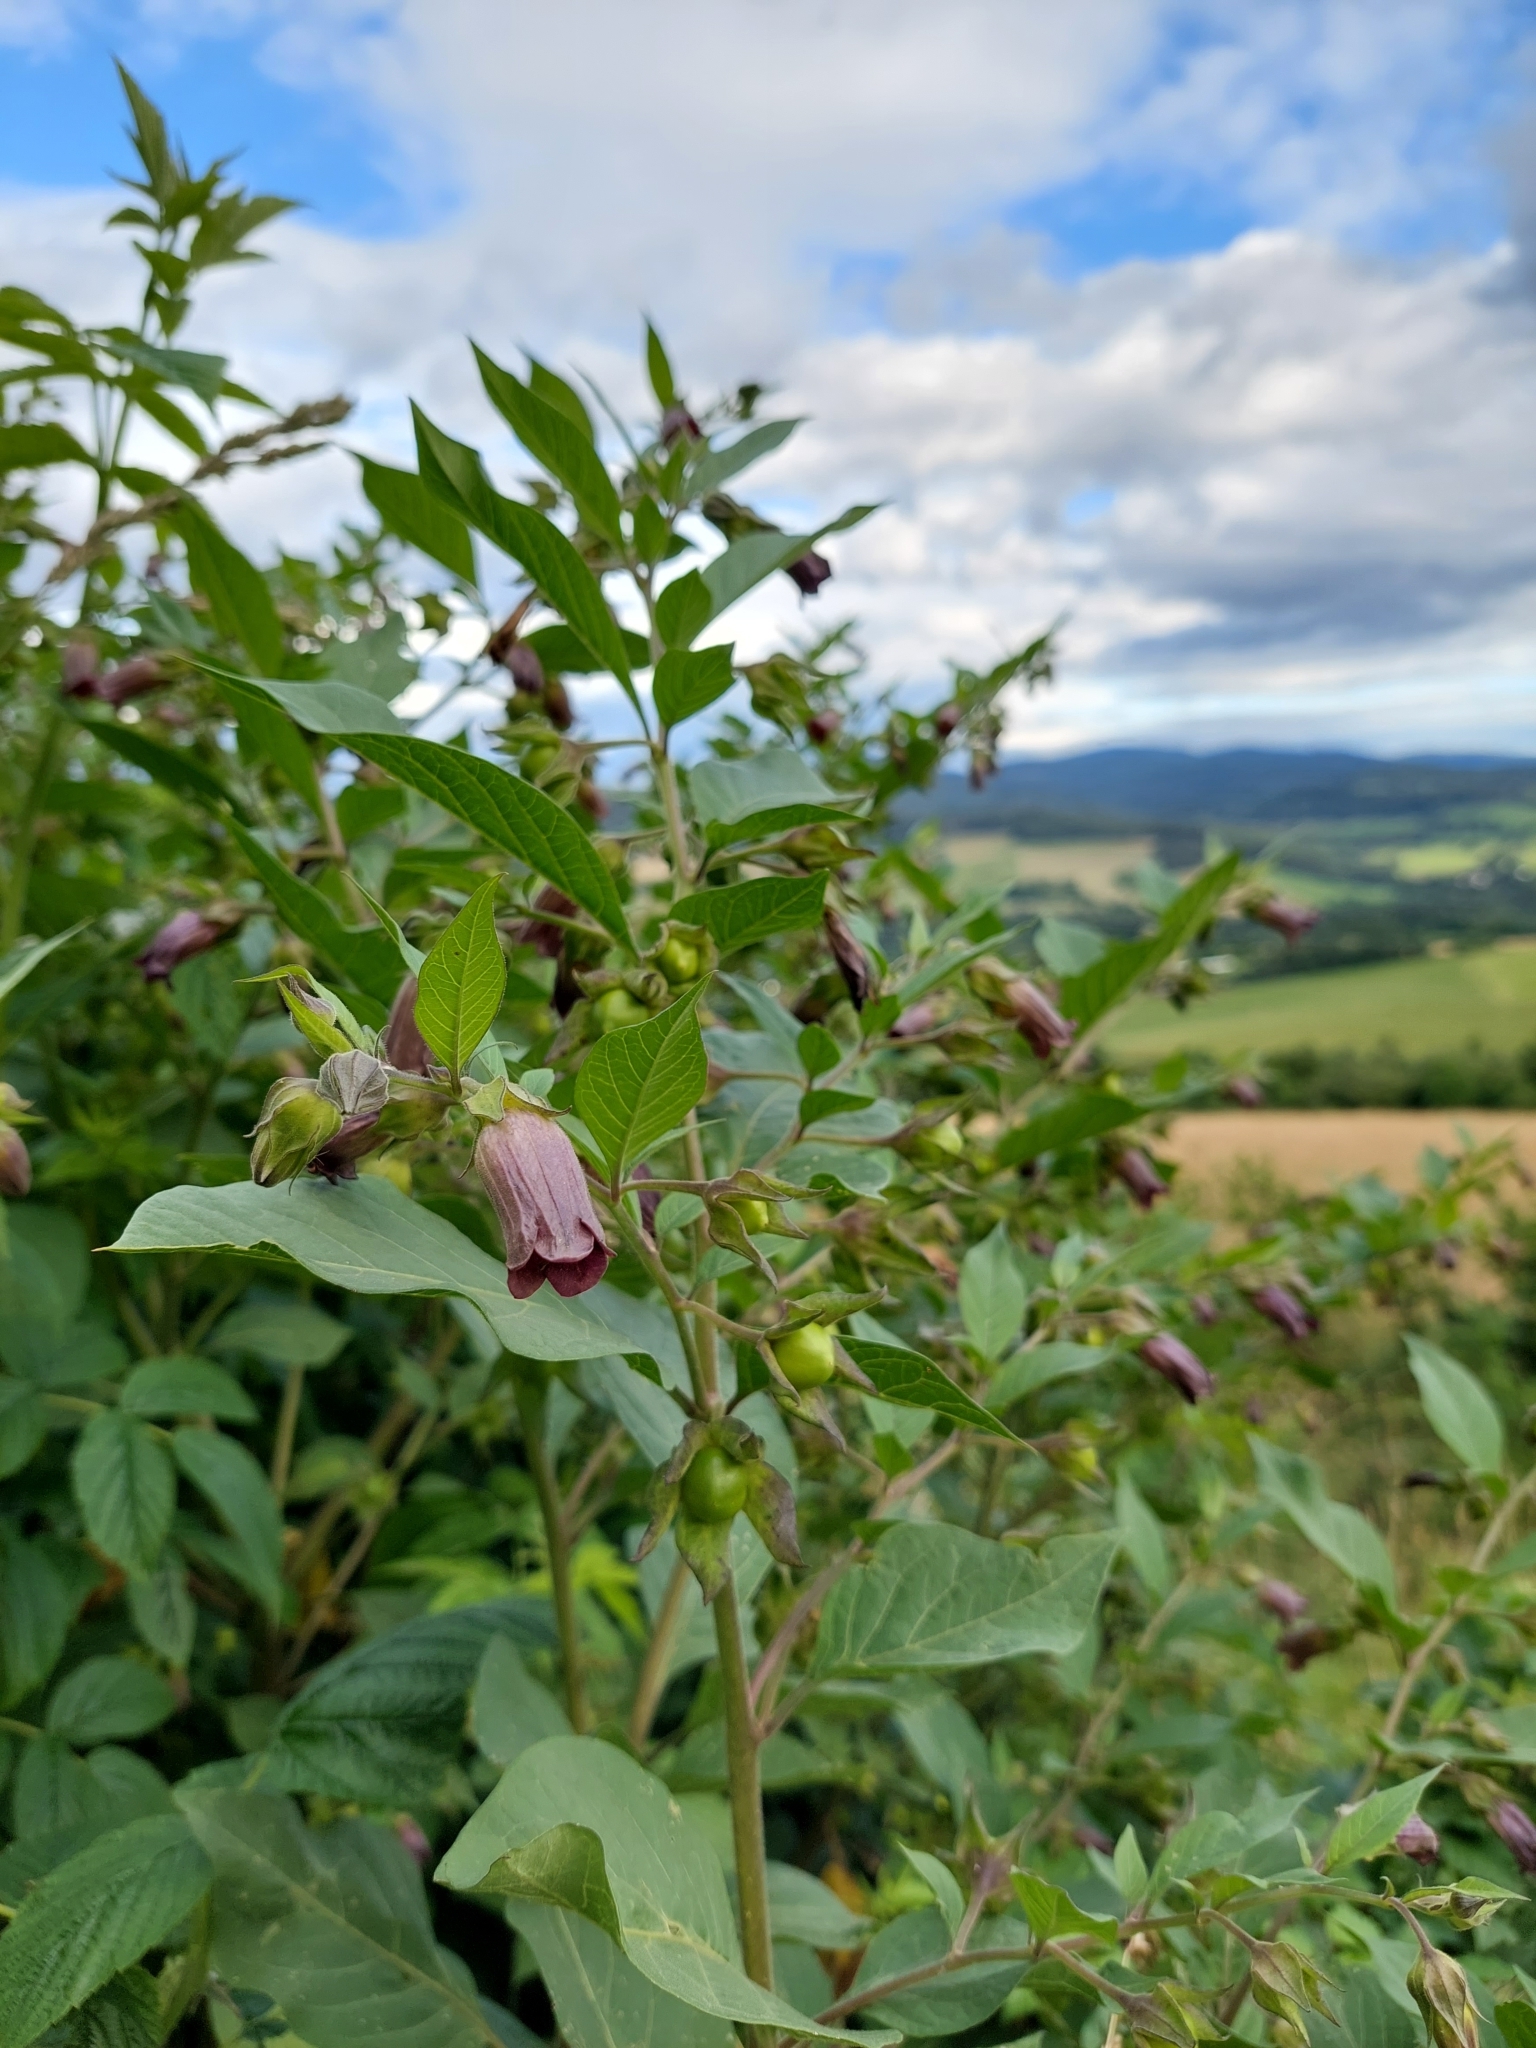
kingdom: Plantae
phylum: Tracheophyta
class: Magnoliopsida
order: Solanales
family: Solanaceae
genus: Atropa
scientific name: Atropa belladonna
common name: Deadly nightshade
